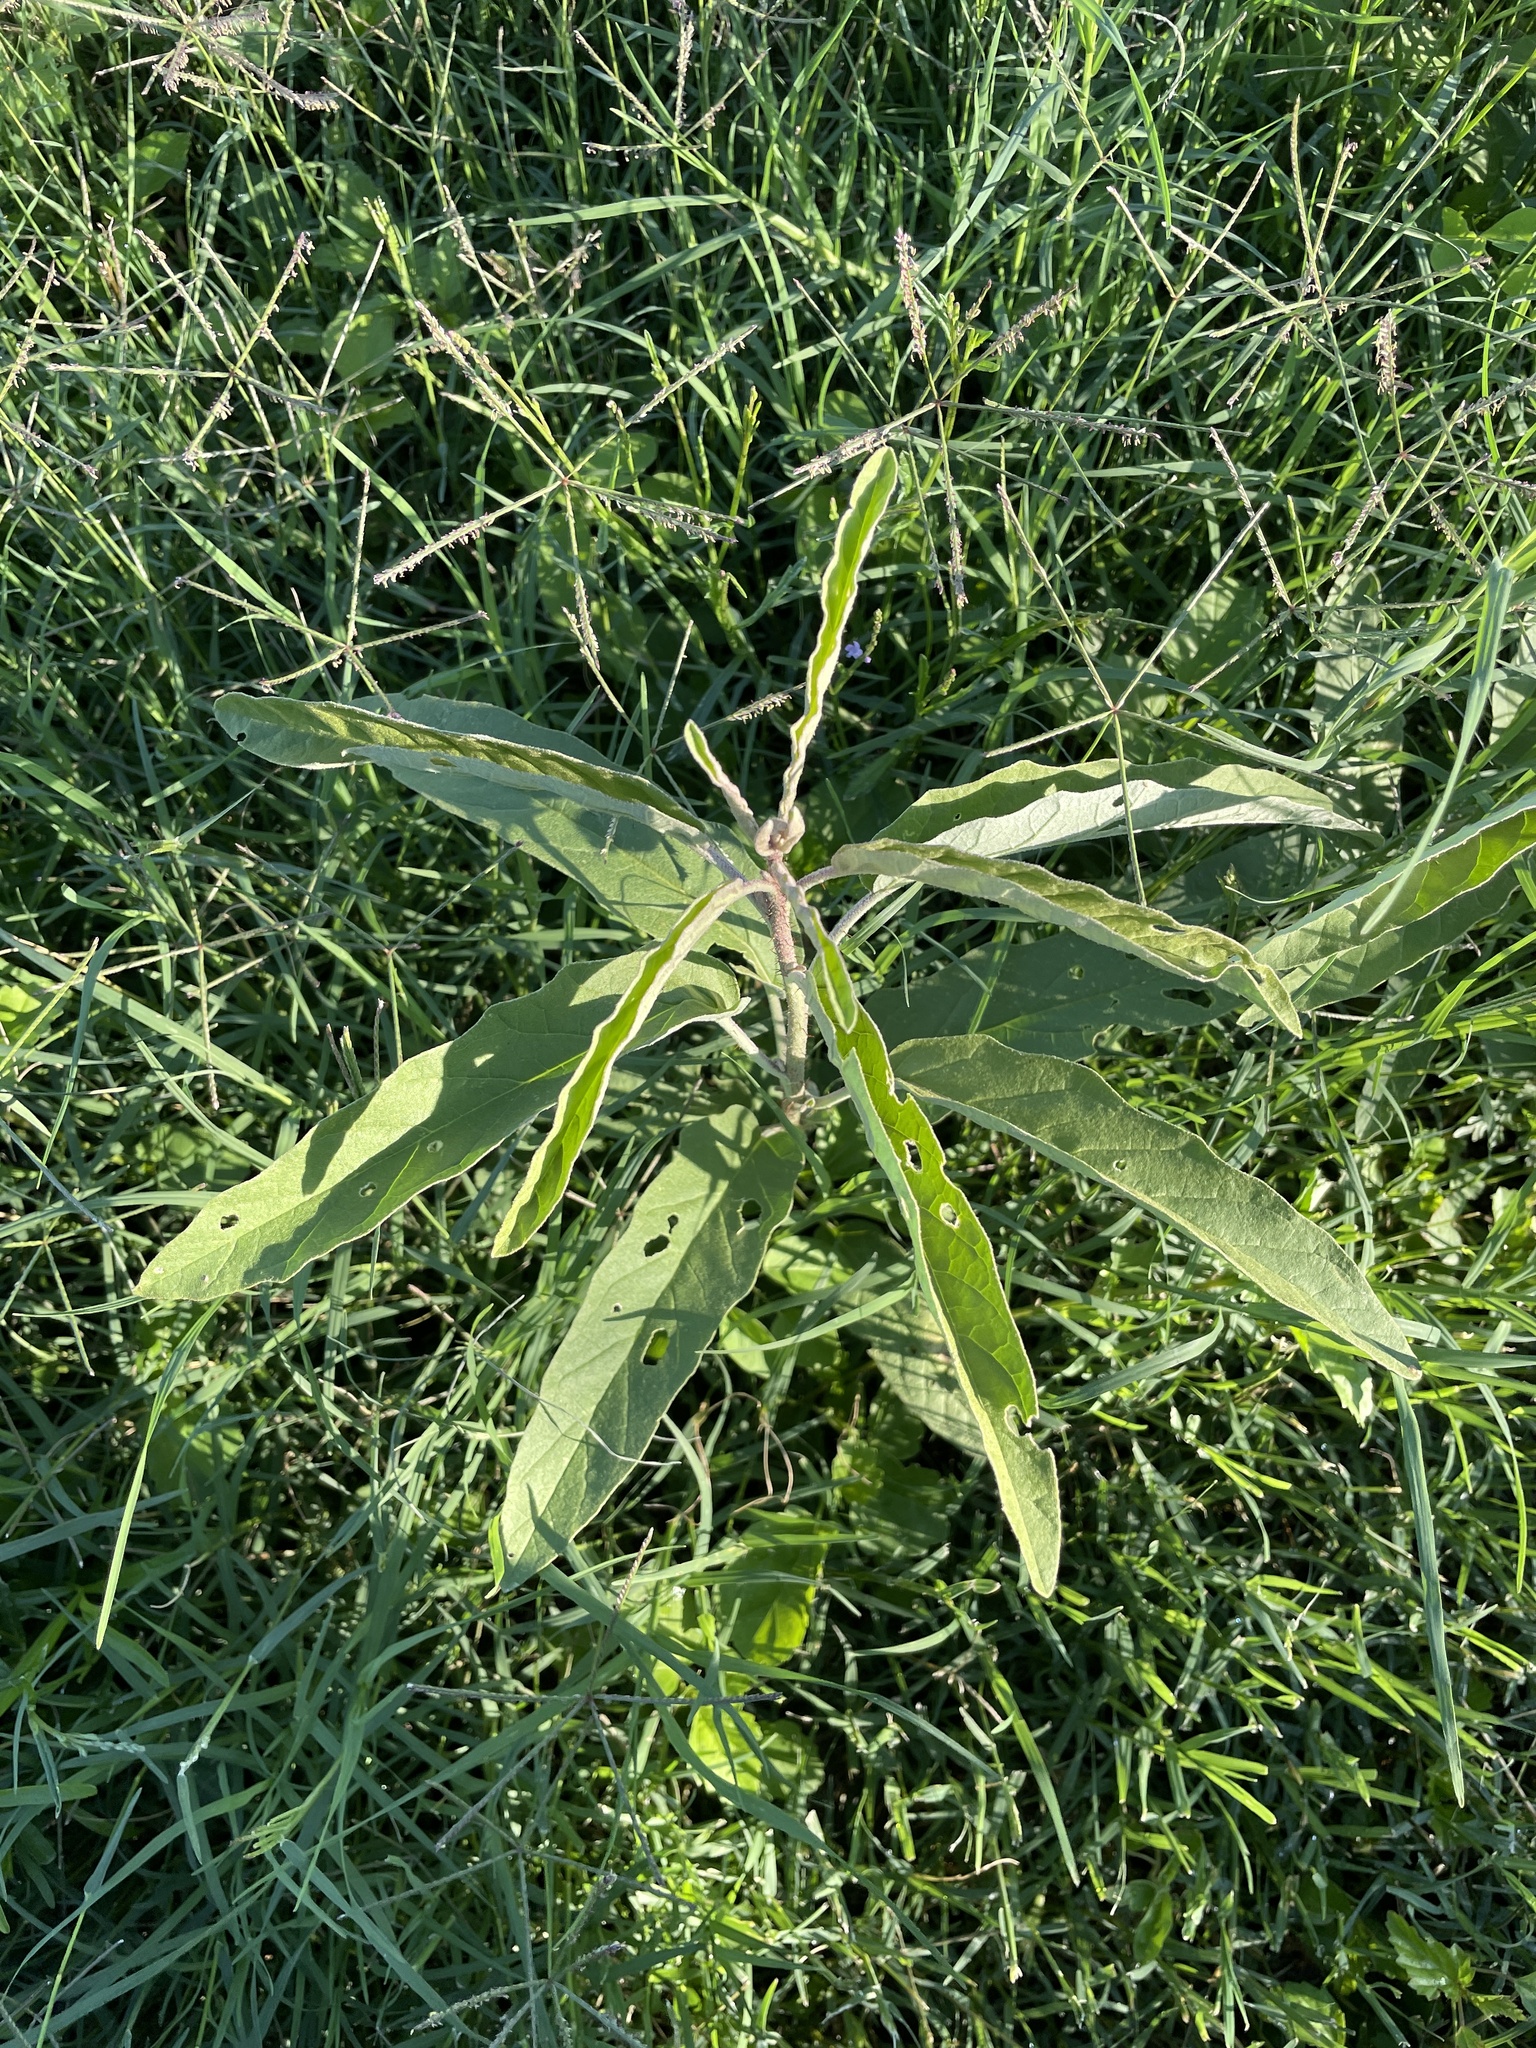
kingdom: Plantae
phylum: Tracheophyta
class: Magnoliopsida
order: Solanales
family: Solanaceae
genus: Solanum
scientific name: Solanum elaeagnifolium
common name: Silverleaf nightshade
